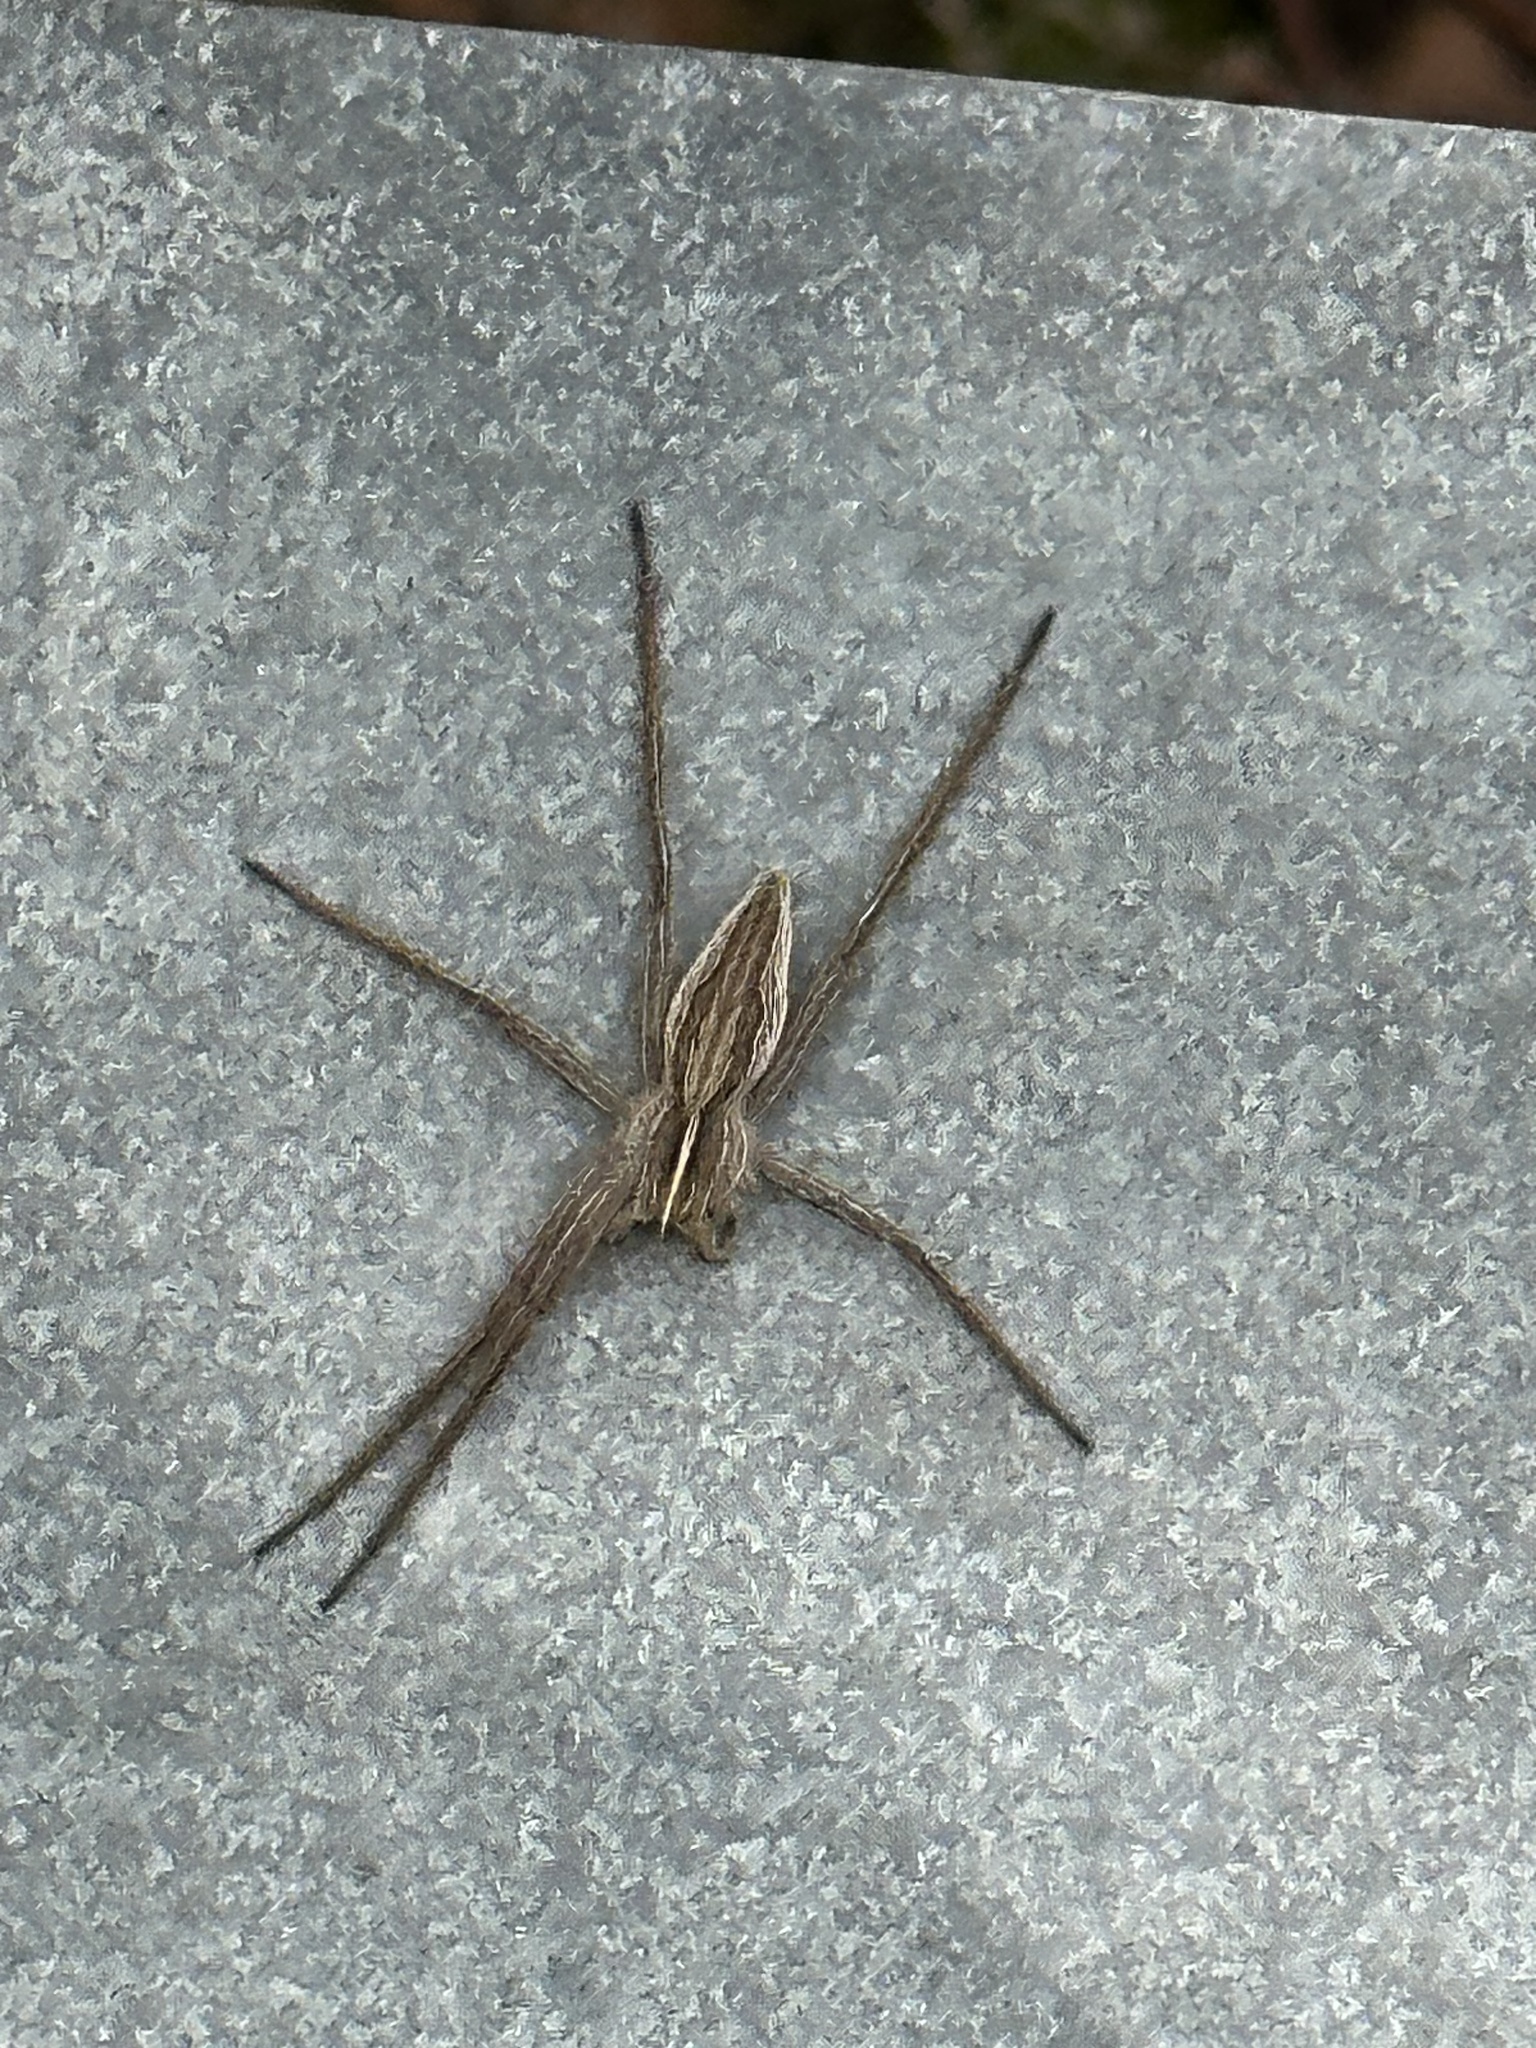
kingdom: Animalia
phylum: Arthropoda
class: Arachnida
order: Araneae
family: Pisauridae
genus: Pisaura
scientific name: Pisaura mirabilis
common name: Tent spider
